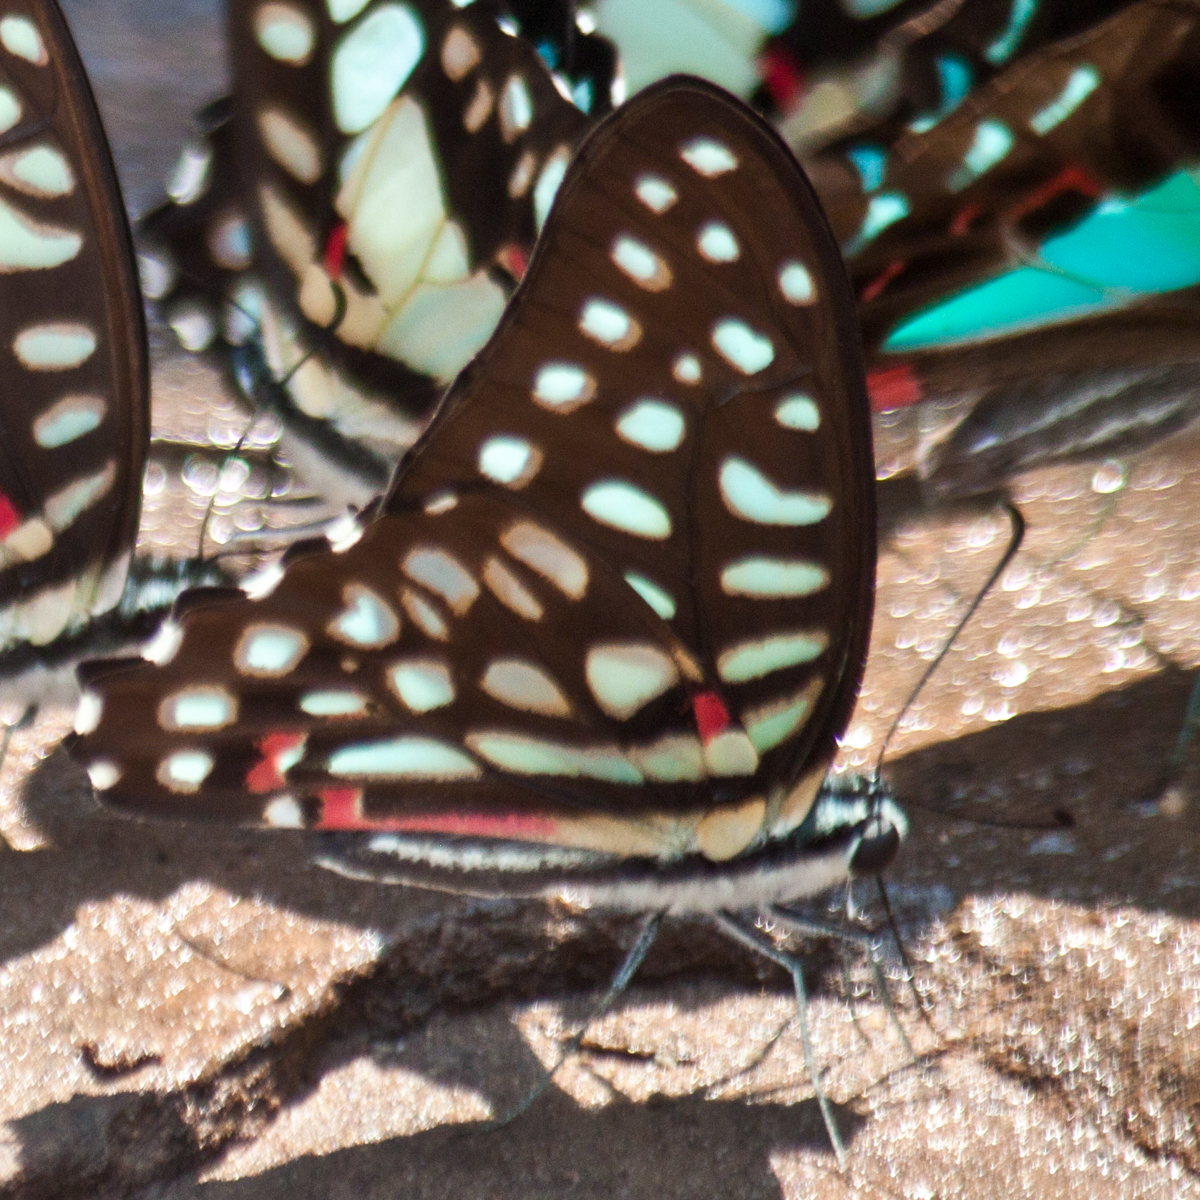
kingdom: Animalia
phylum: Arthropoda
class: Insecta
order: Lepidoptera
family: Papilionidae
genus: Graphium
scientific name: Graphium arycles
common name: Spotted jay
